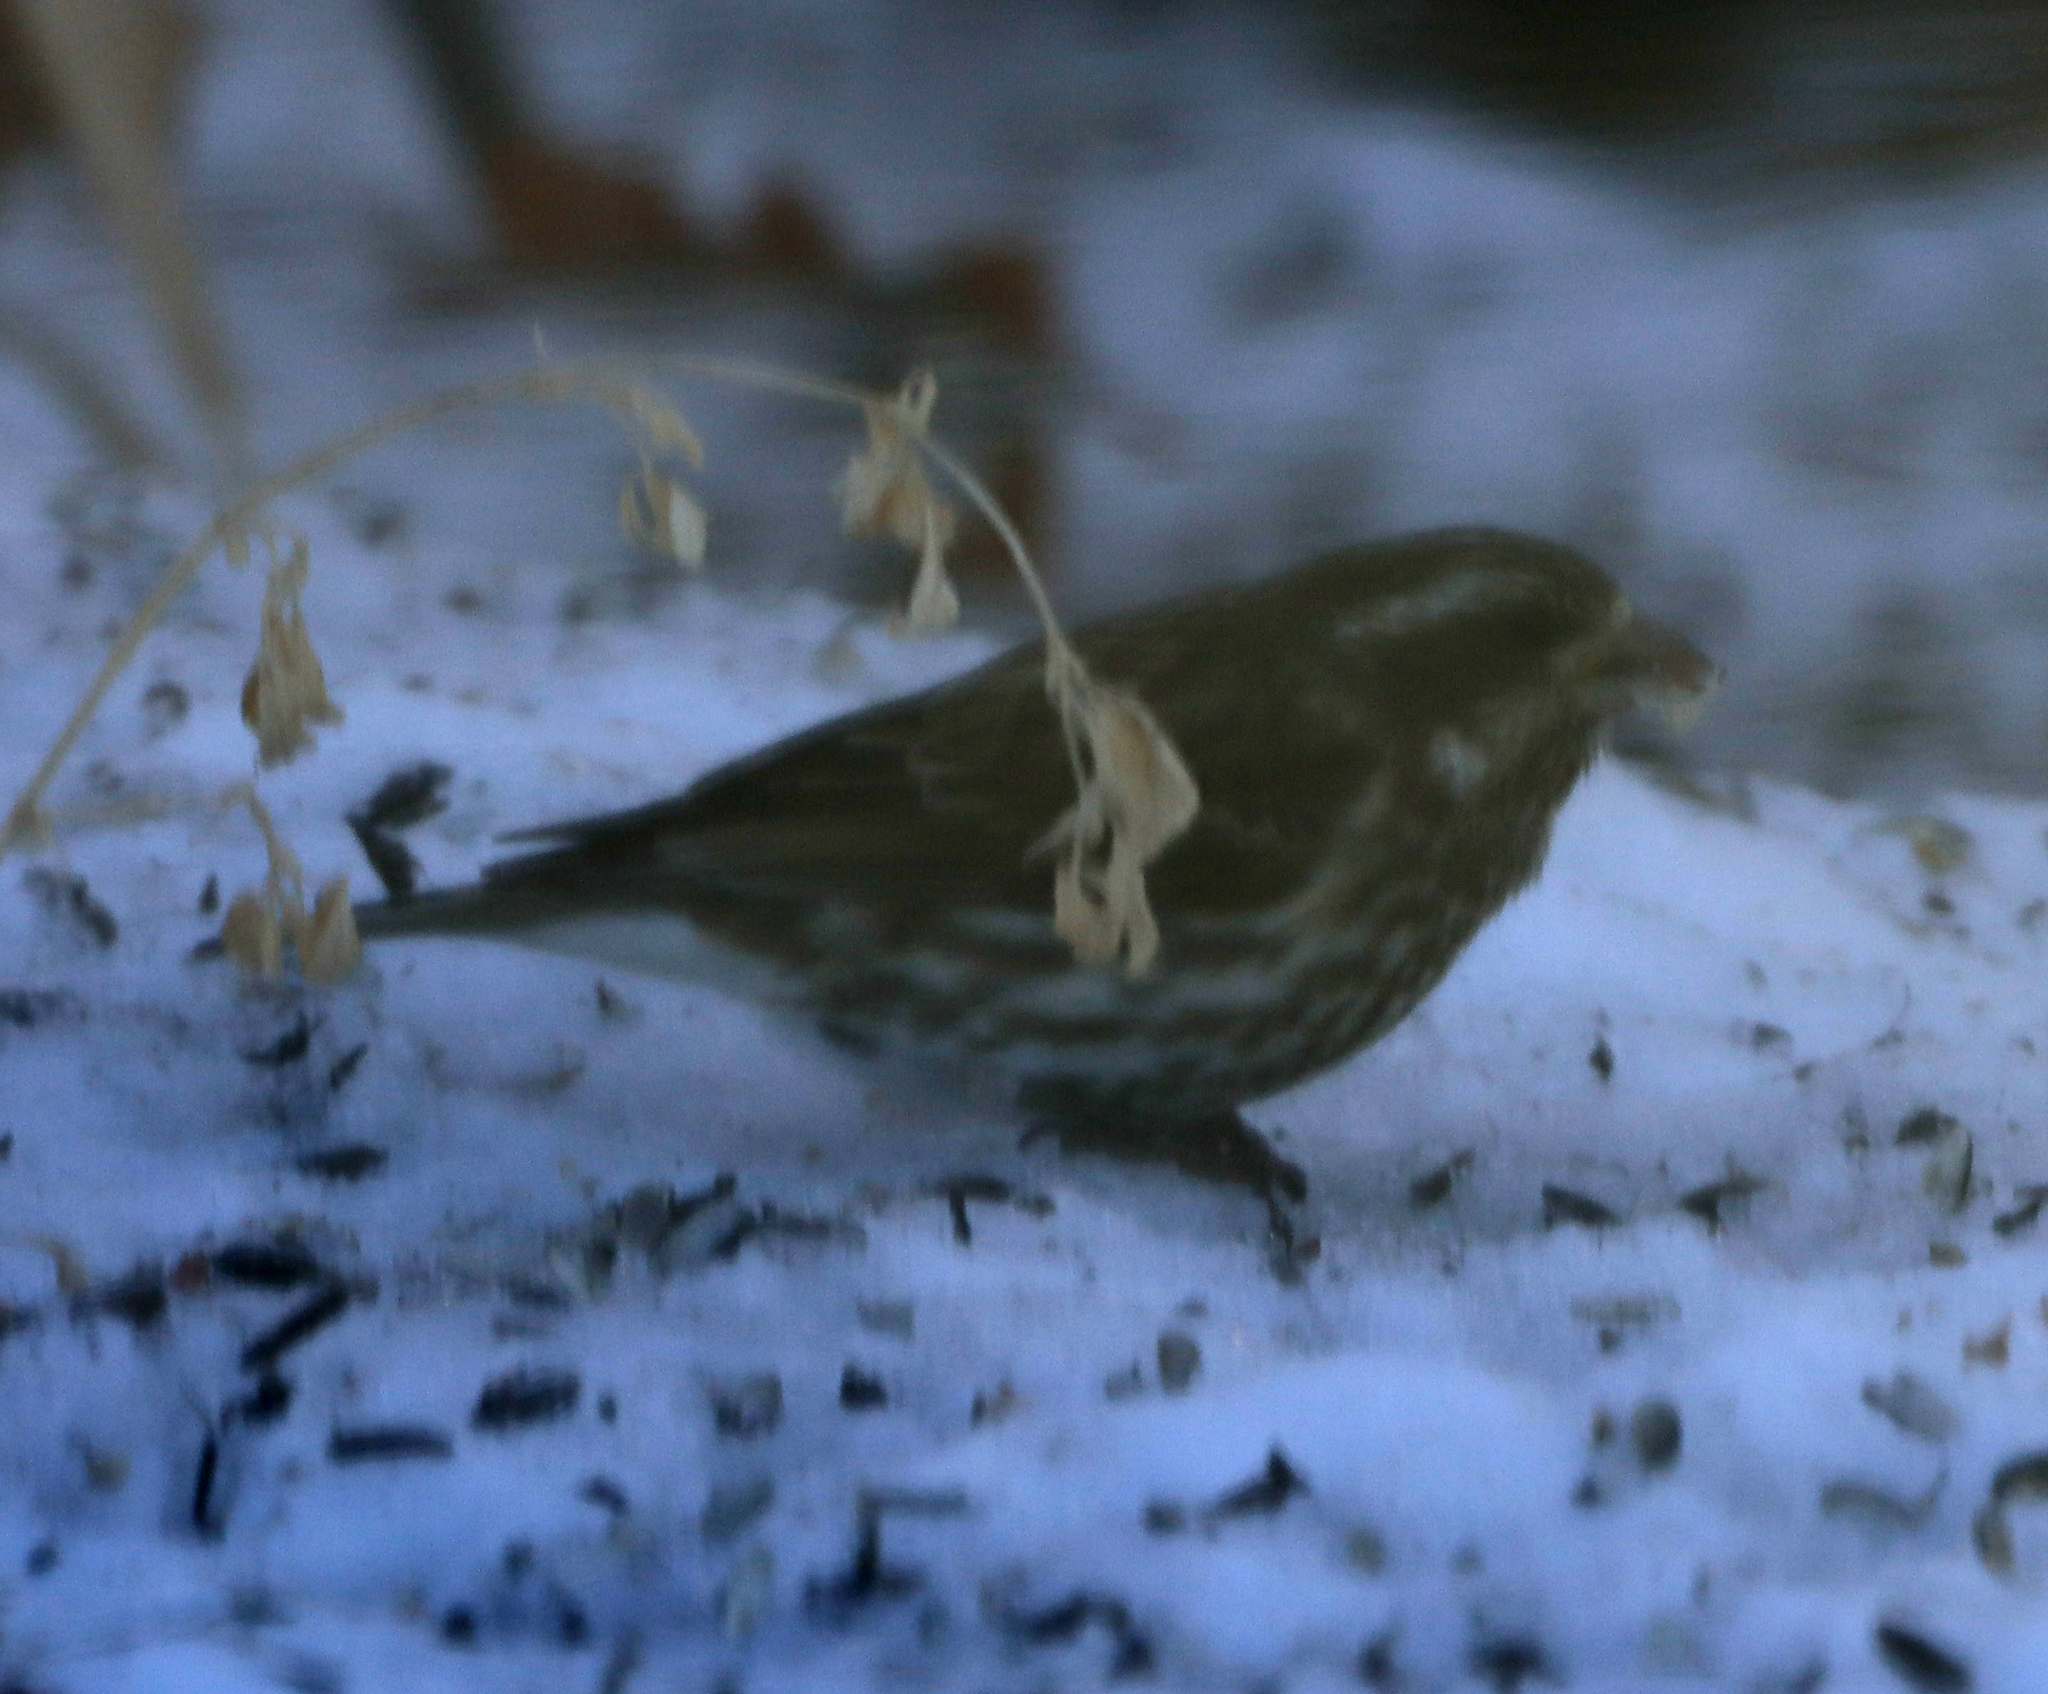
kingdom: Animalia
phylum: Chordata
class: Aves
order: Passeriformes
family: Fringillidae
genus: Haemorhous
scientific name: Haemorhous purpureus
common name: Purple finch
